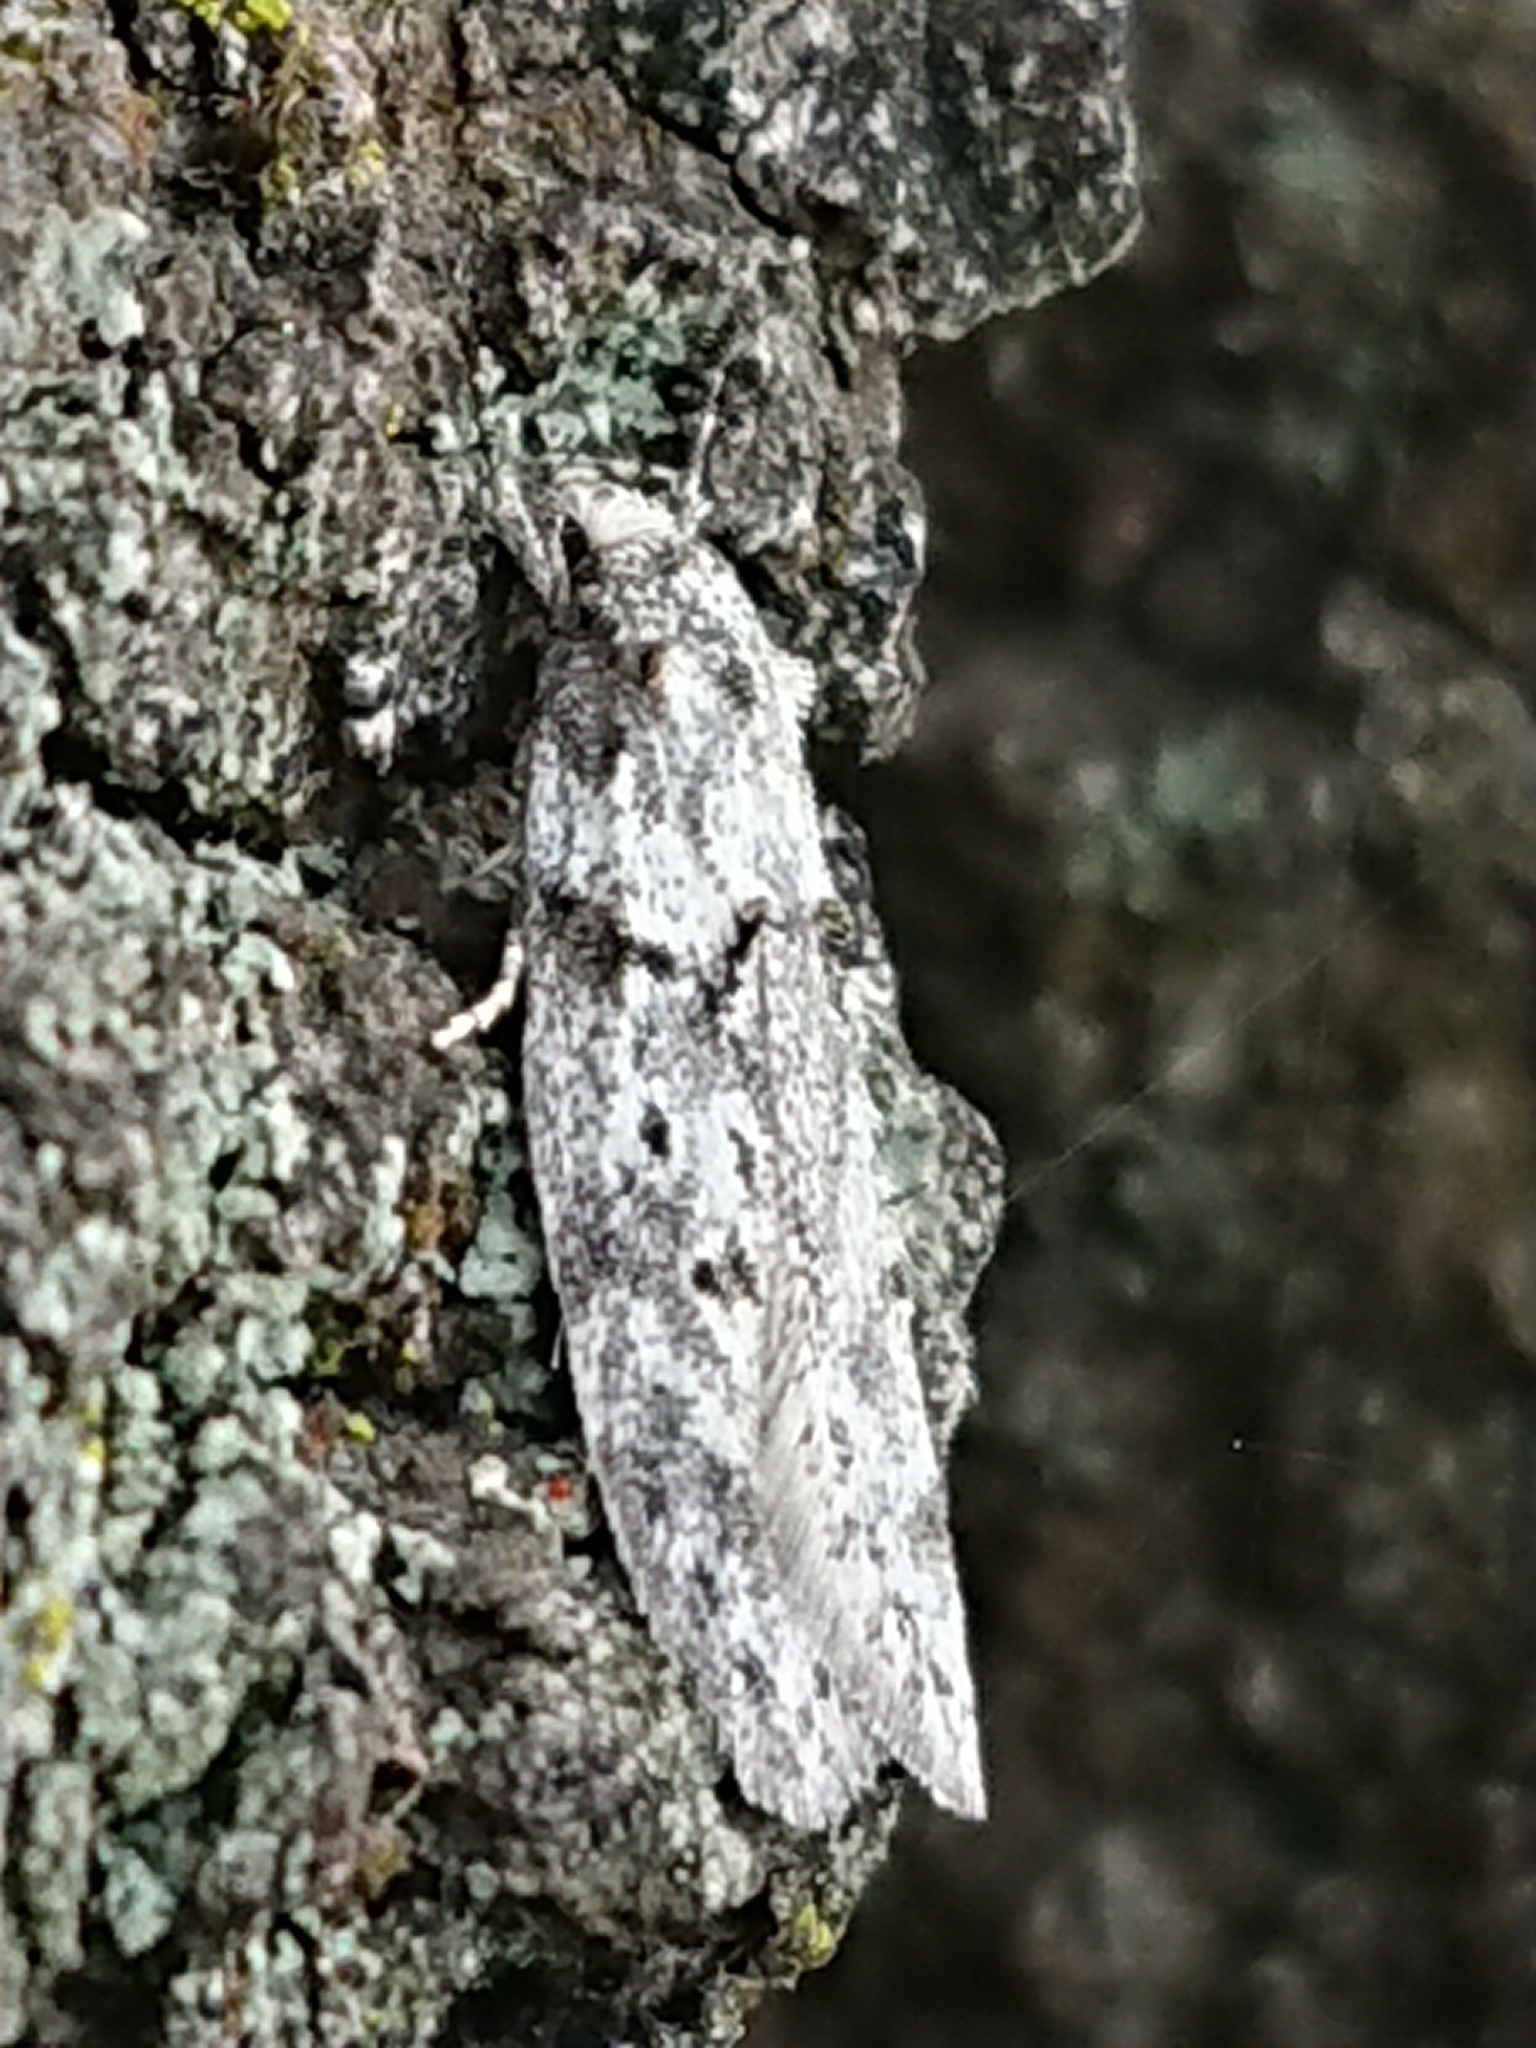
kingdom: Animalia
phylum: Arthropoda
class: Insecta
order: Lepidoptera
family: Oecophoridae
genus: Izatha
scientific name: Izatha convulsella
